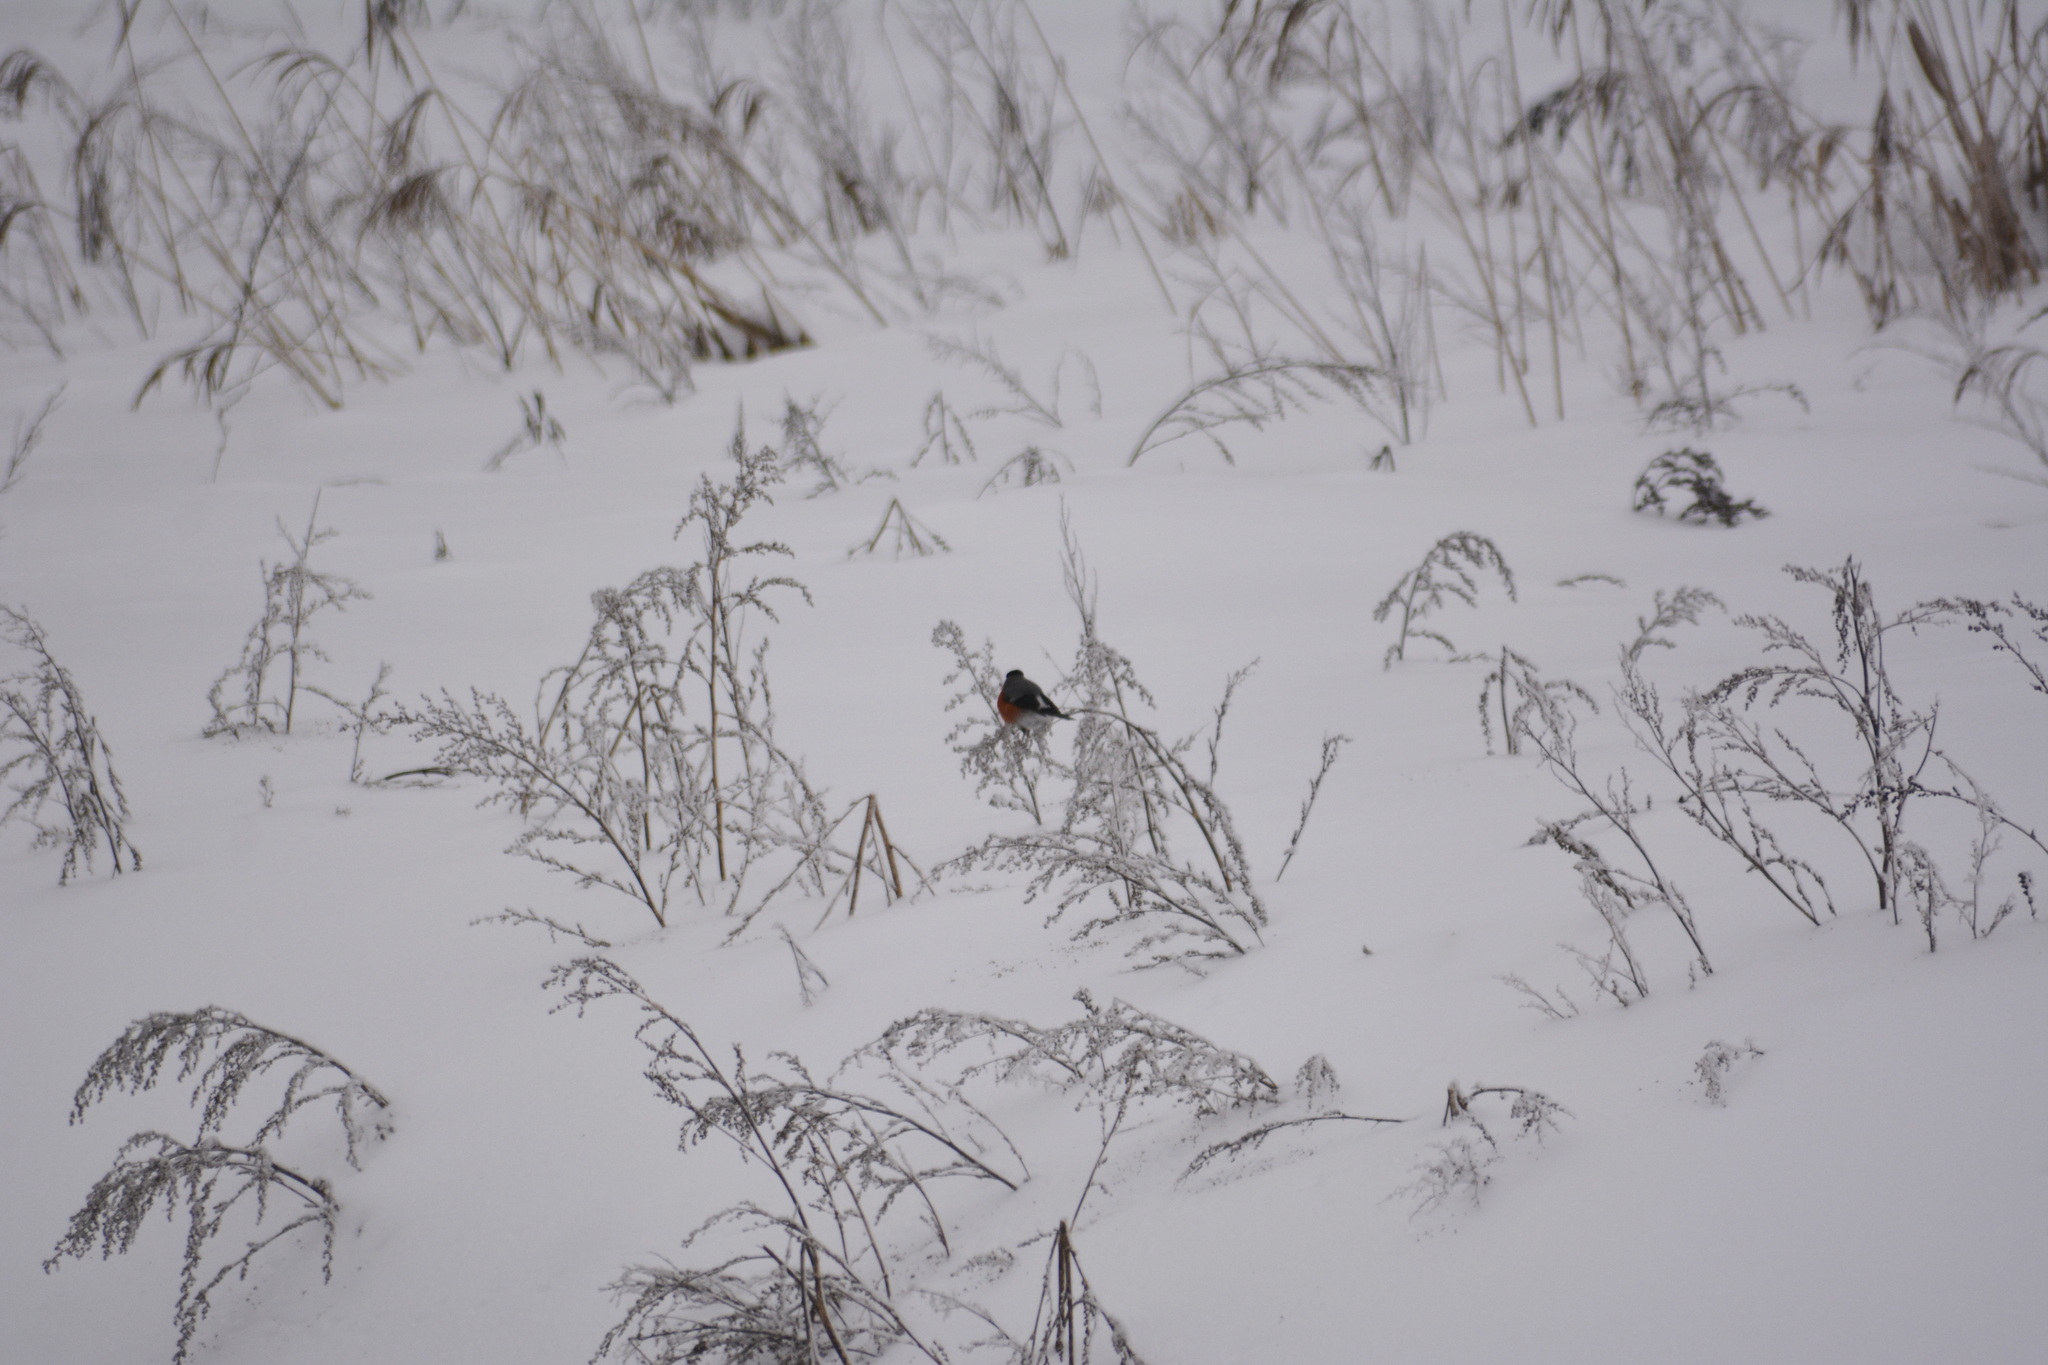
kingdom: Animalia
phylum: Chordata
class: Aves
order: Passeriformes
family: Fringillidae
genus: Pyrrhula
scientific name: Pyrrhula pyrrhula
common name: Eurasian bullfinch
